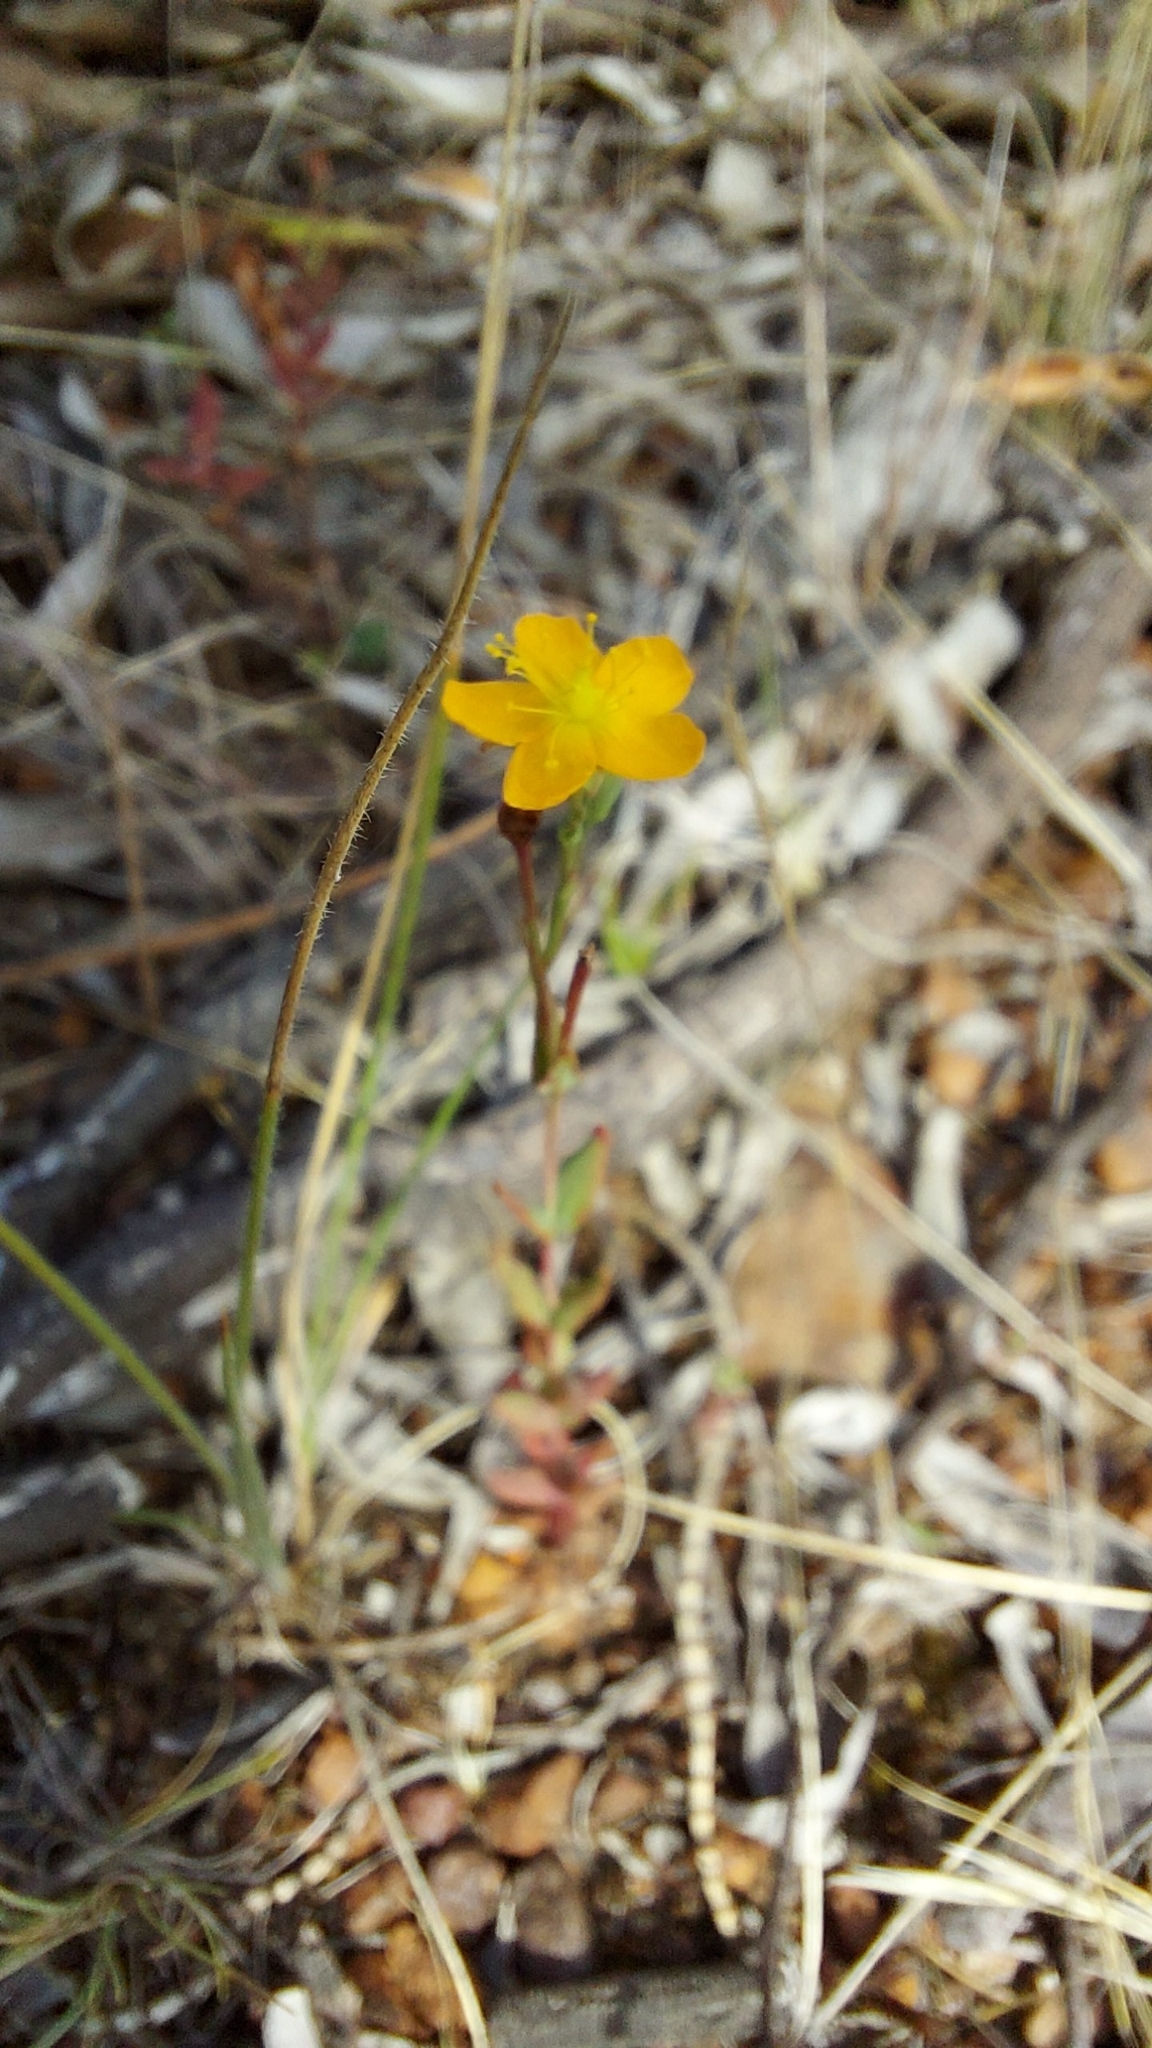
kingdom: Plantae
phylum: Tracheophyta
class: Magnoliopsida
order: Malpighiales
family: Hypericaceae
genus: Hypericum
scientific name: Hypericum gramineum
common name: Grassy st. johnswort
